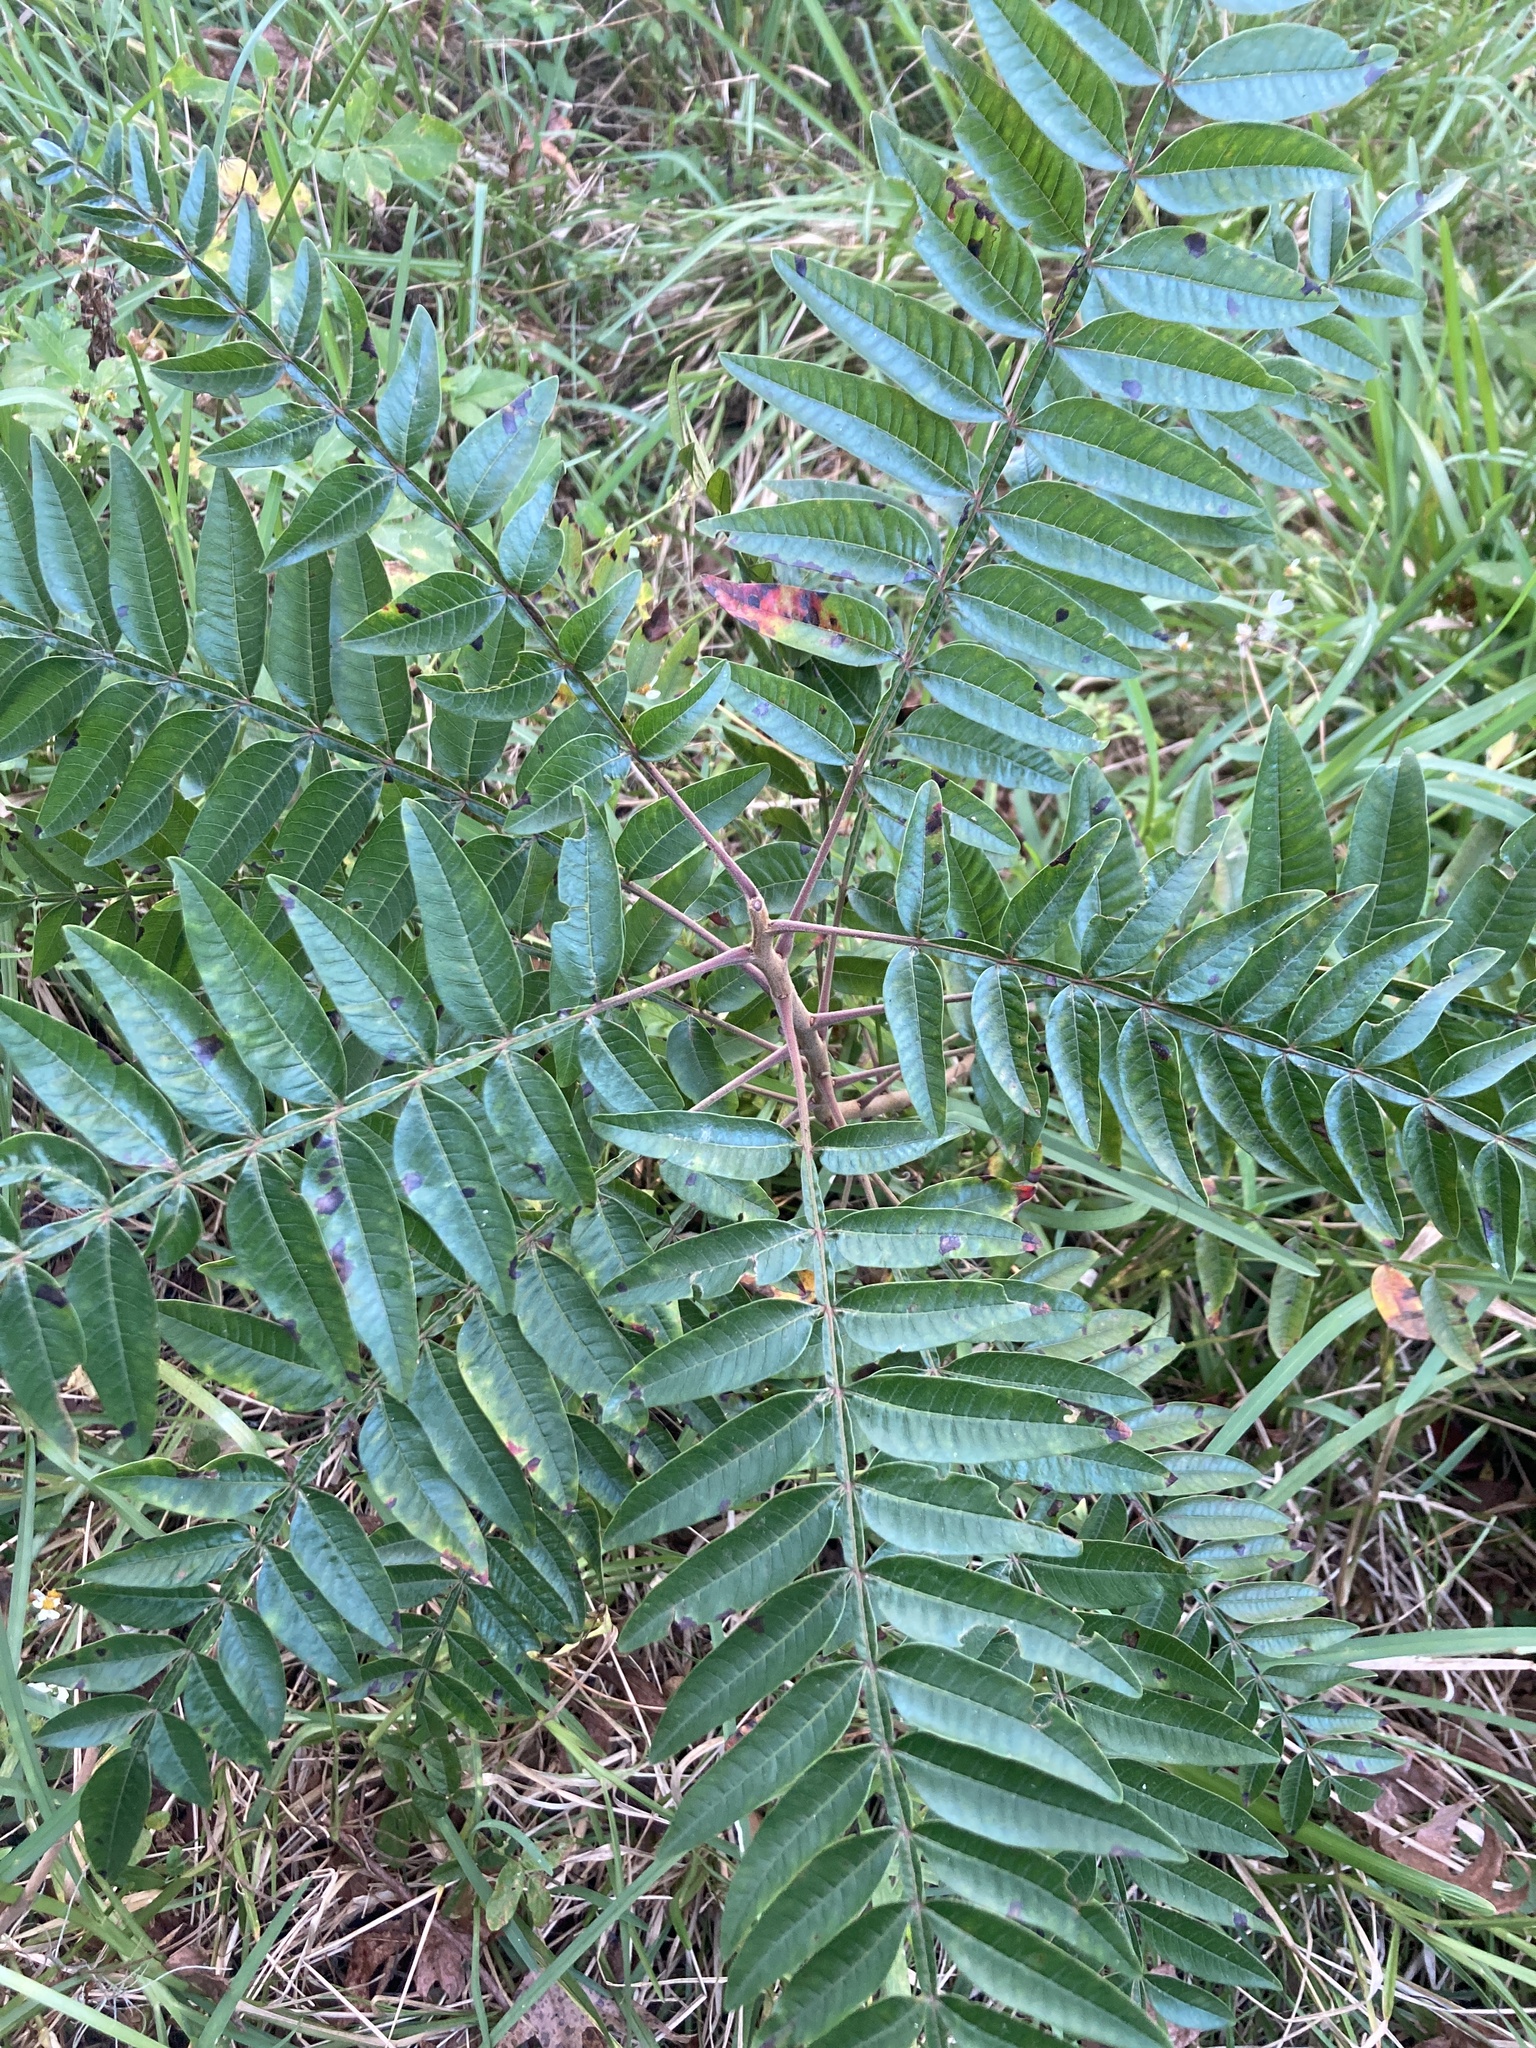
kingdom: Plantae
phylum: Tracheophyta
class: Magnoliopsida
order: Sapindales
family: Anacardiaceae
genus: Rhus
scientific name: Rhus copallina
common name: Shining sumac
